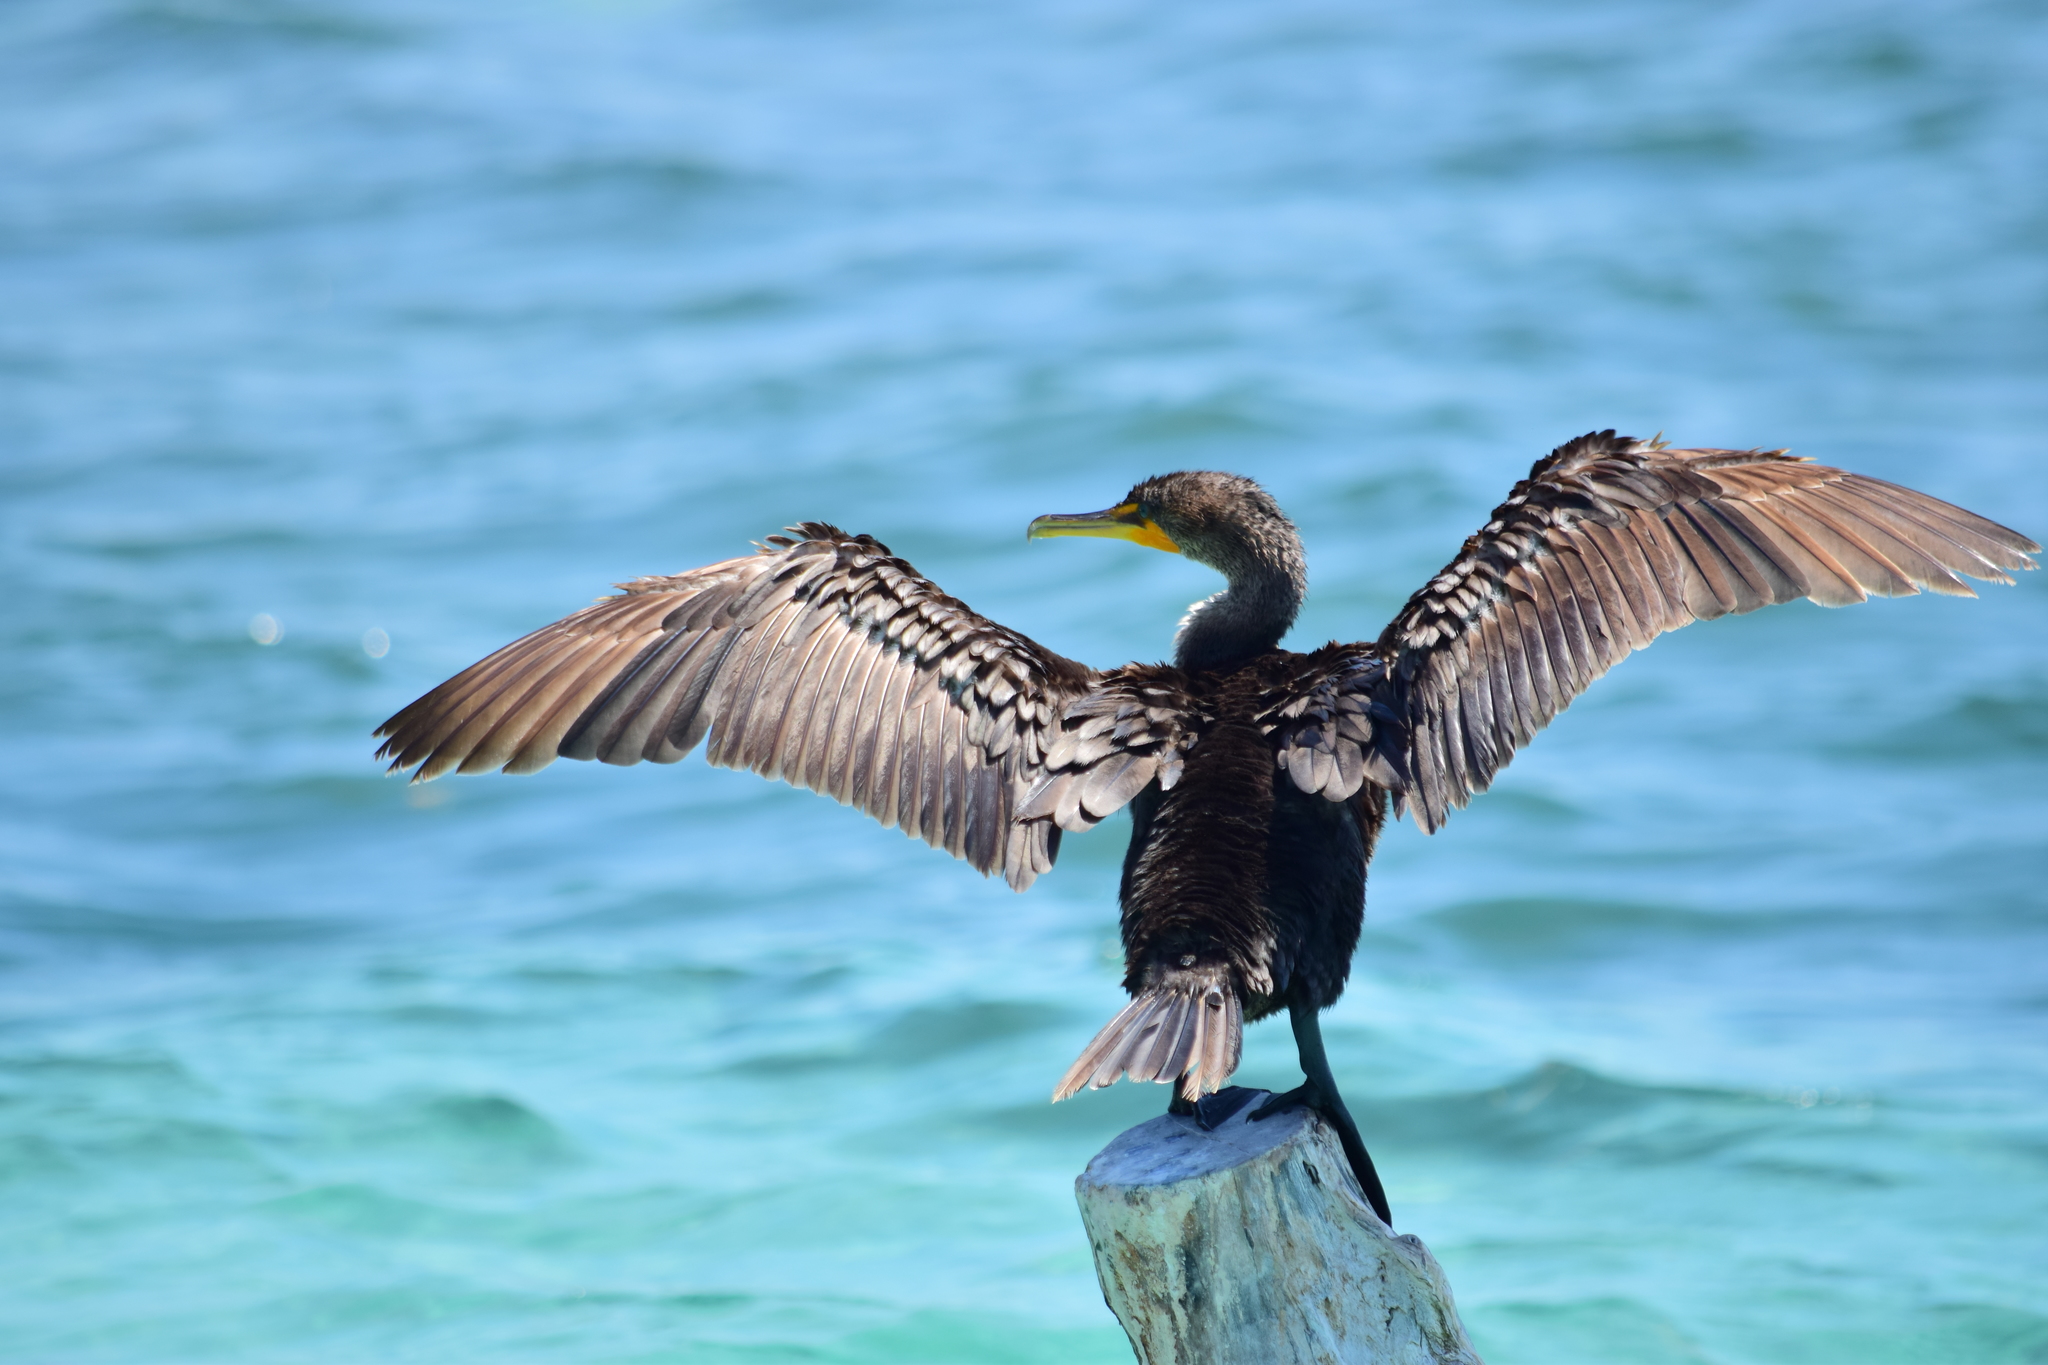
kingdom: Animalia
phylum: Chordata
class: Aves
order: Suliformes
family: Phalacrocoracidae
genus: Phalacrocorax
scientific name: Phalacrocorax auritus
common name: Double-crested cormorant
